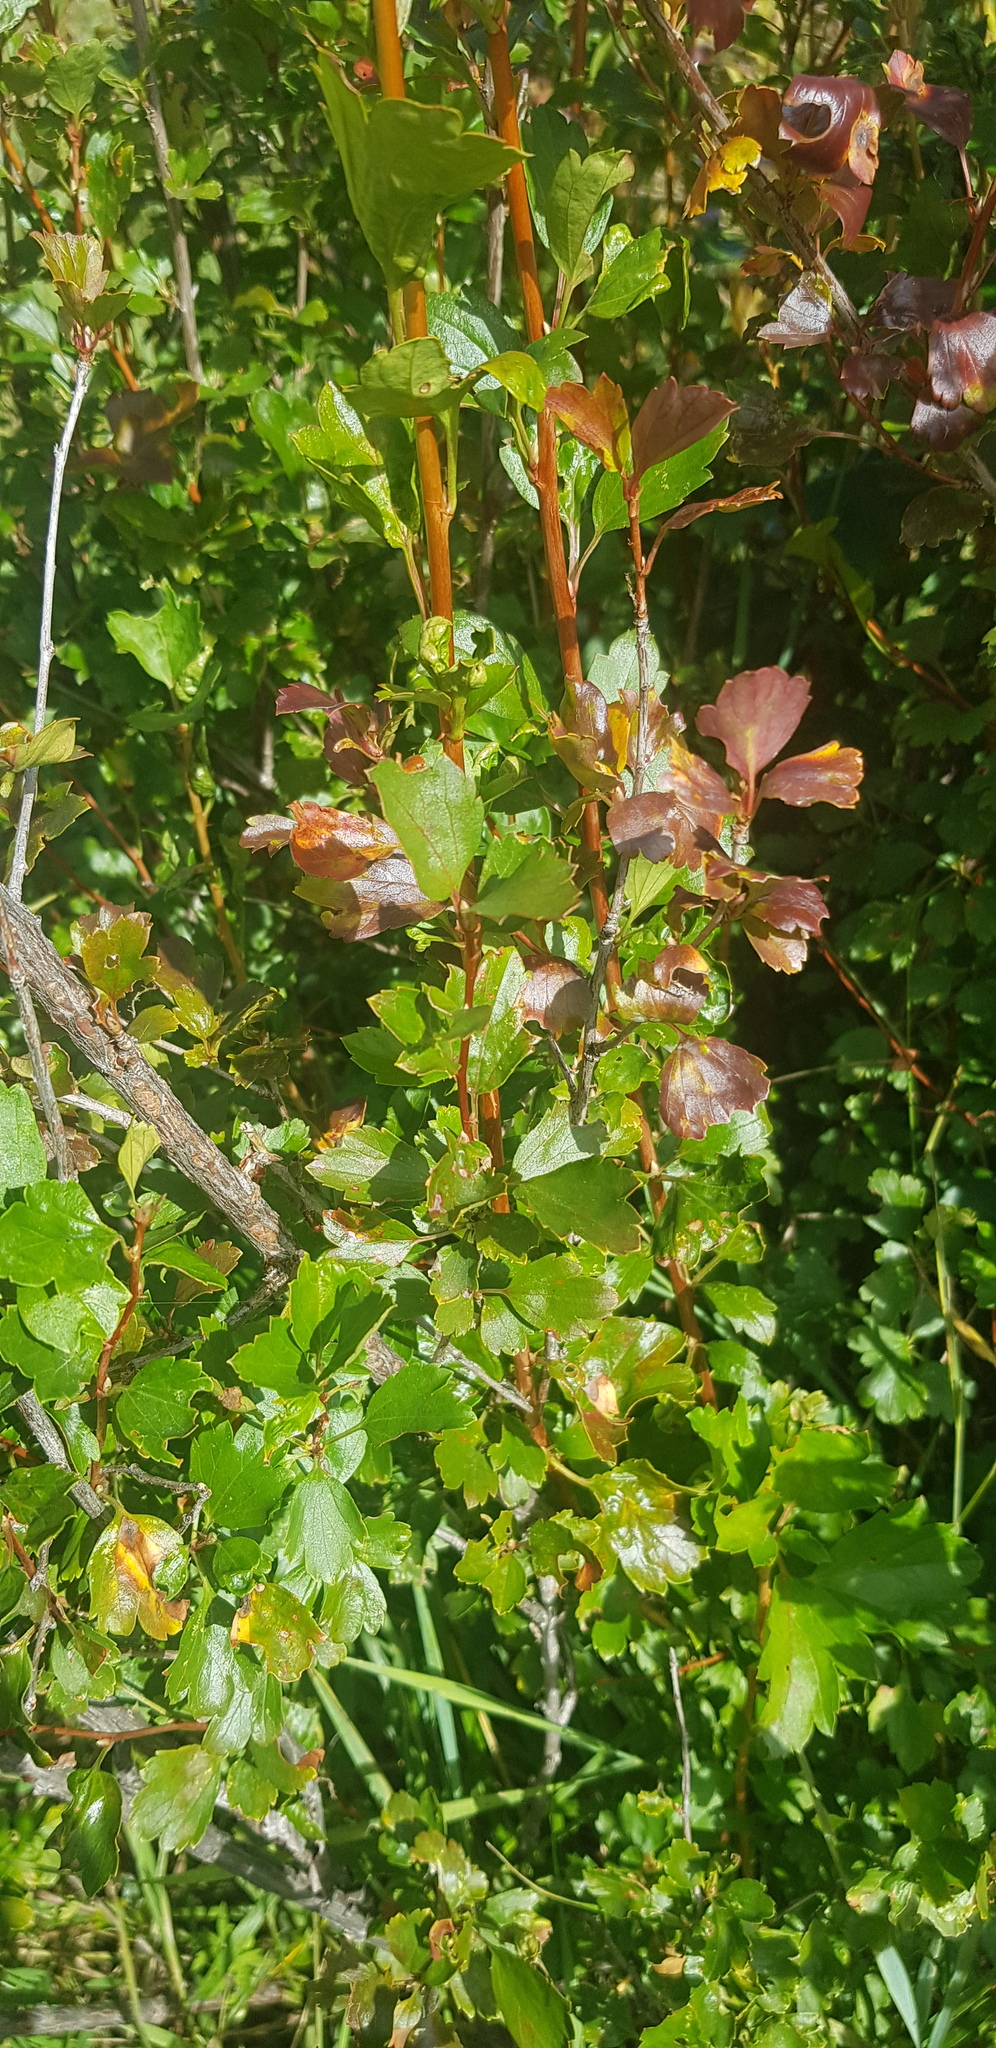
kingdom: Plantae
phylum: Tracheophyta
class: Magnoliopsida
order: Saxifragales
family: Grossulariaceae
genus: Ribes
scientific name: Ribes diacanthum
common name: Siberian currant
